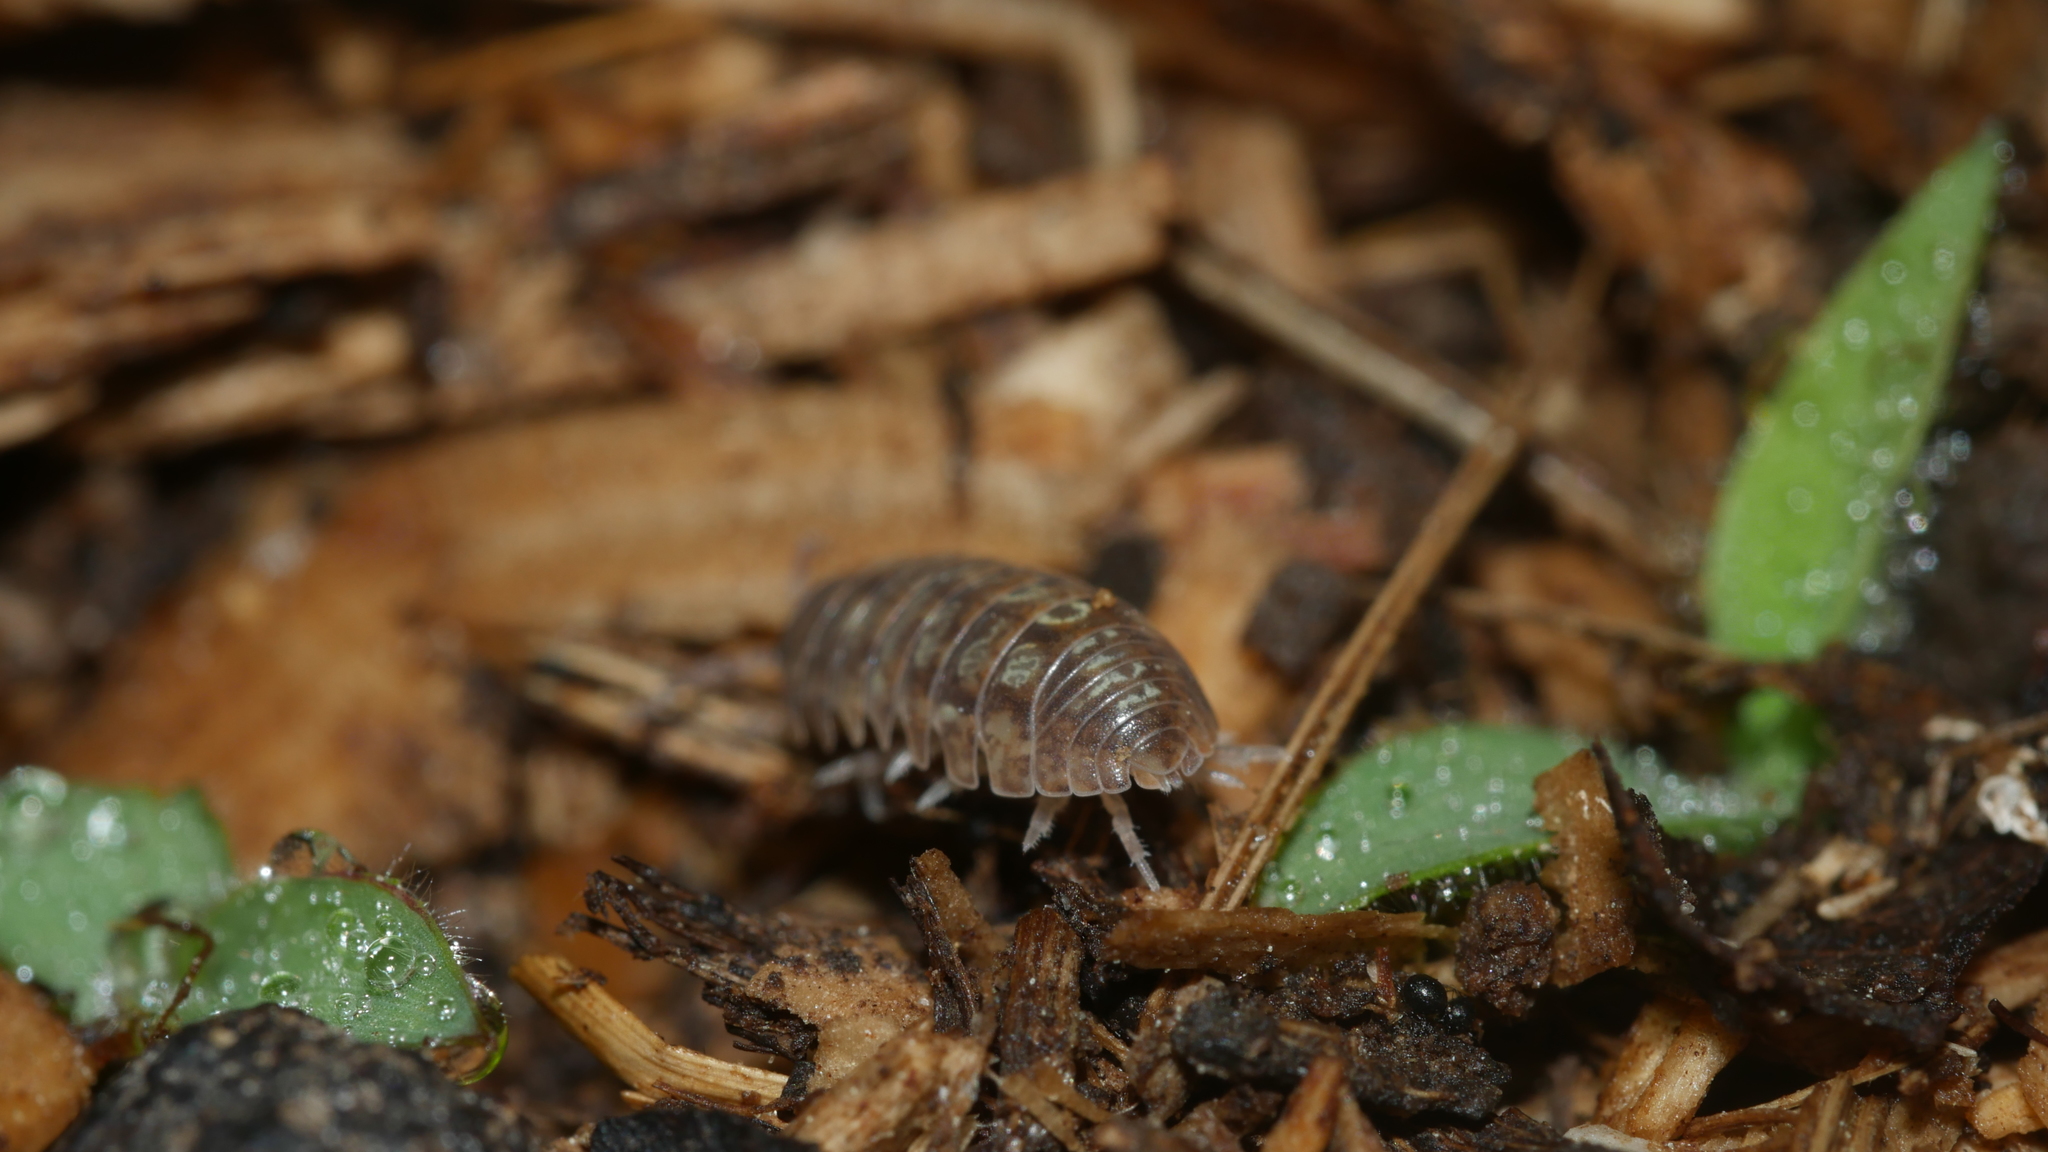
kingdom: Animalia
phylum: Arthropoda
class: Malacostraca
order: Isopoda
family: Armadillidiidae
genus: Armadillidium
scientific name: Armadillidium vulgare
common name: Common pill woodlouse
